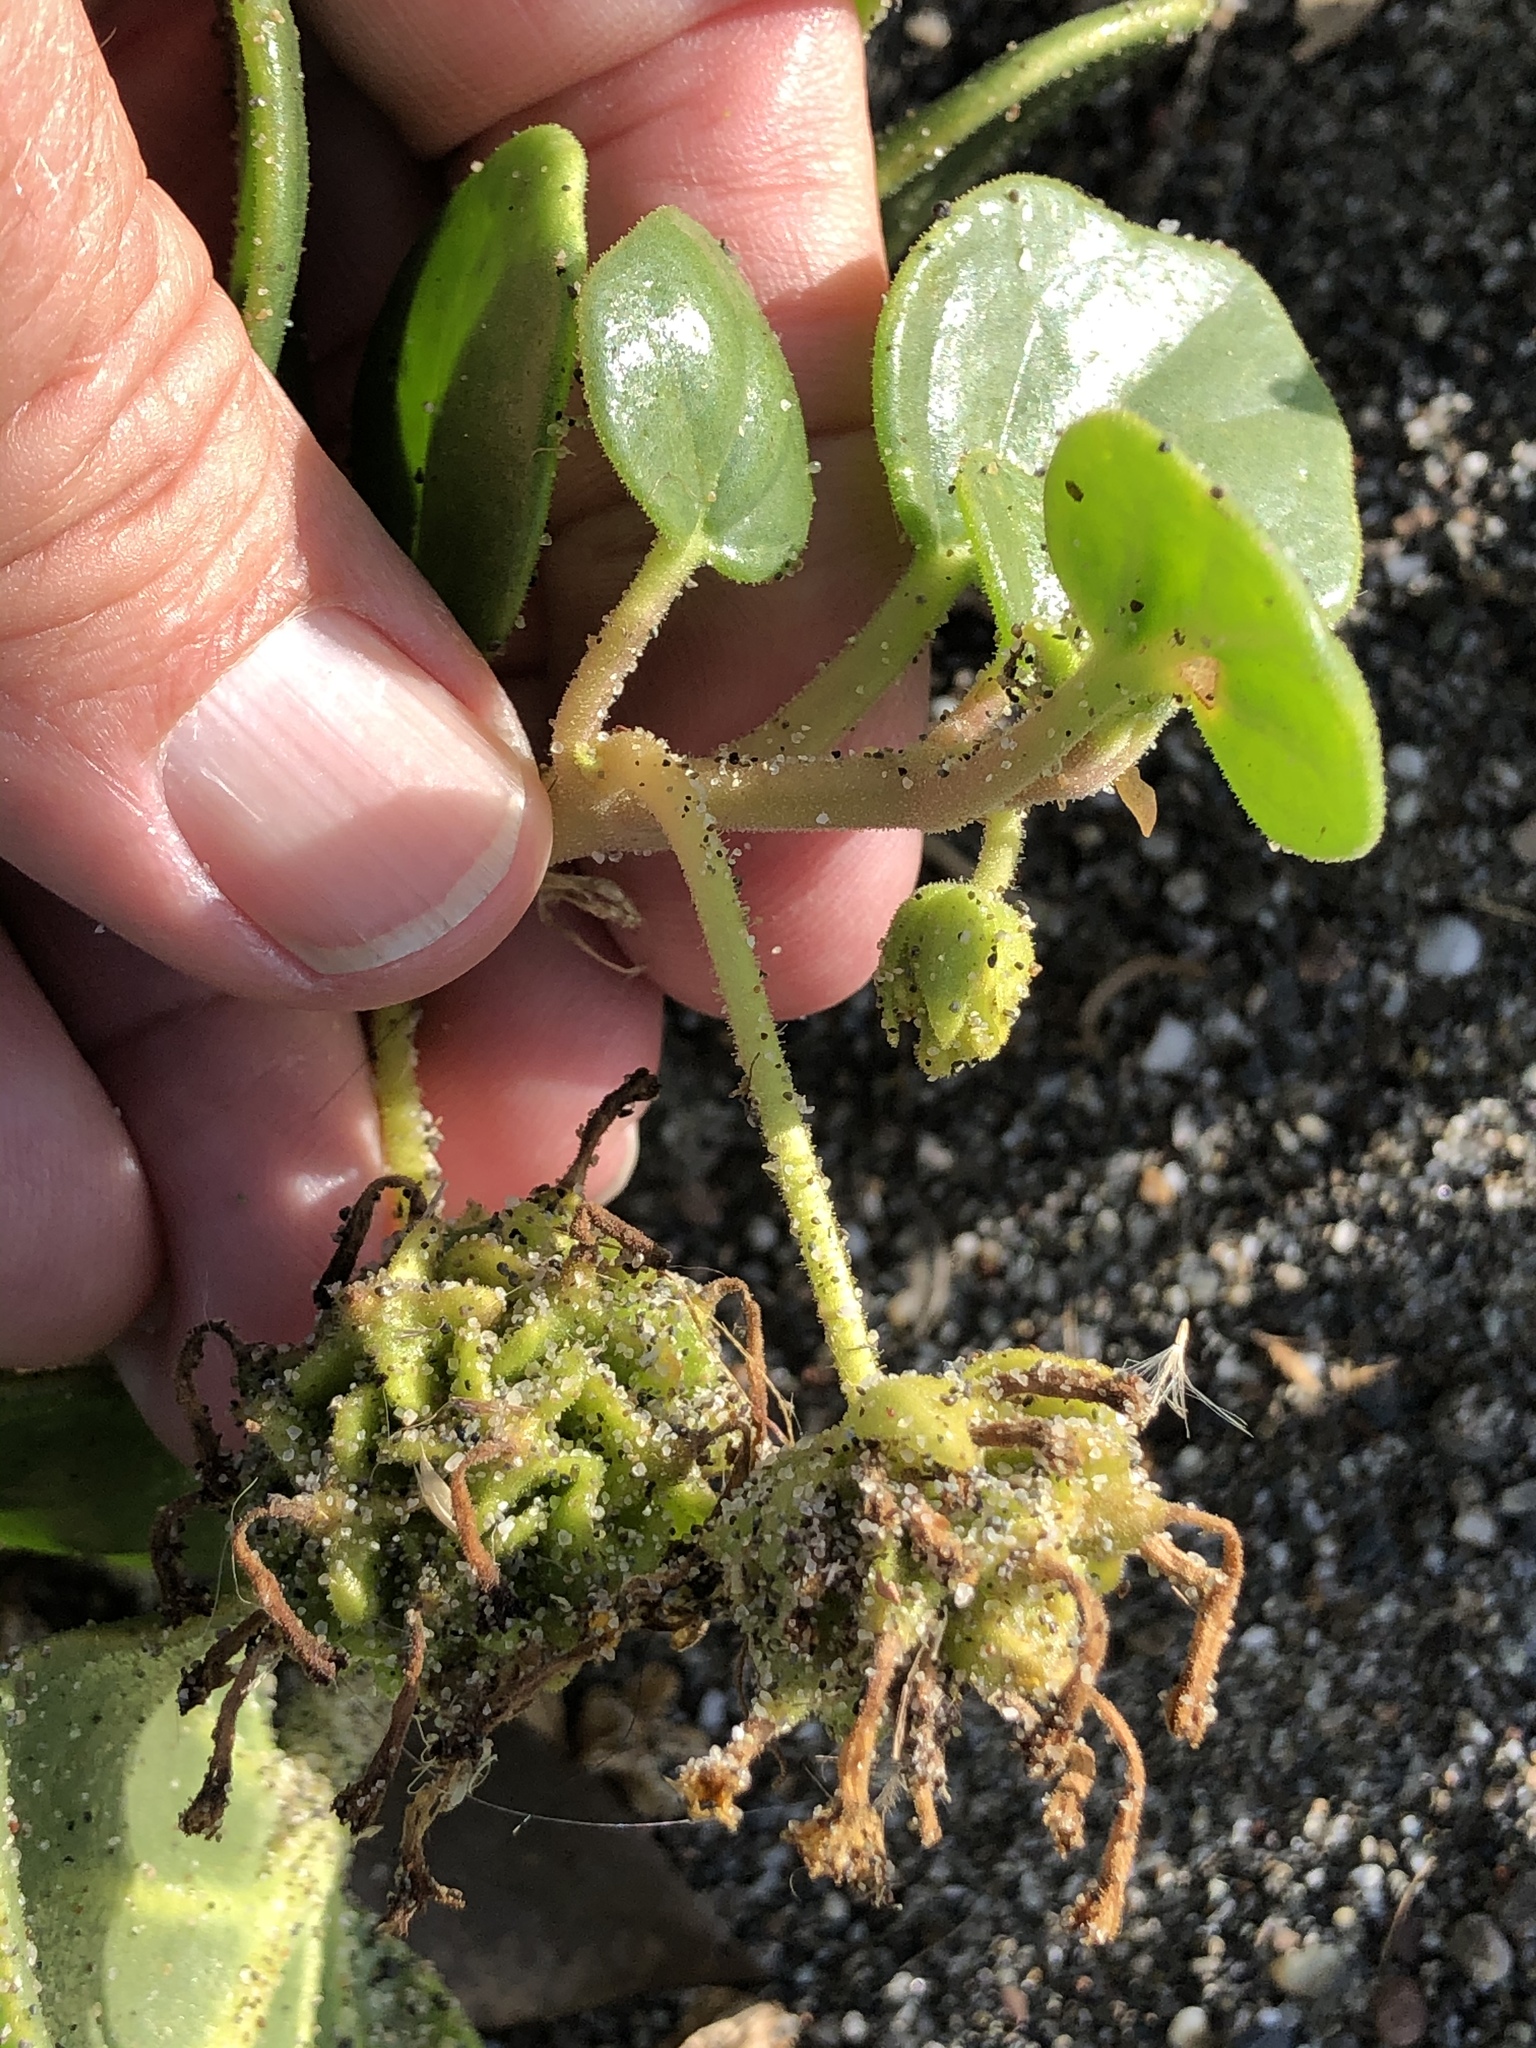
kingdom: Plantae
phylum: Tracheophyta
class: Magnoliopsida
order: Caryophyllales
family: Nyctaginaceae
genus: Abronia
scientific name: Abronia latifolia
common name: Yellow sand-verbena
